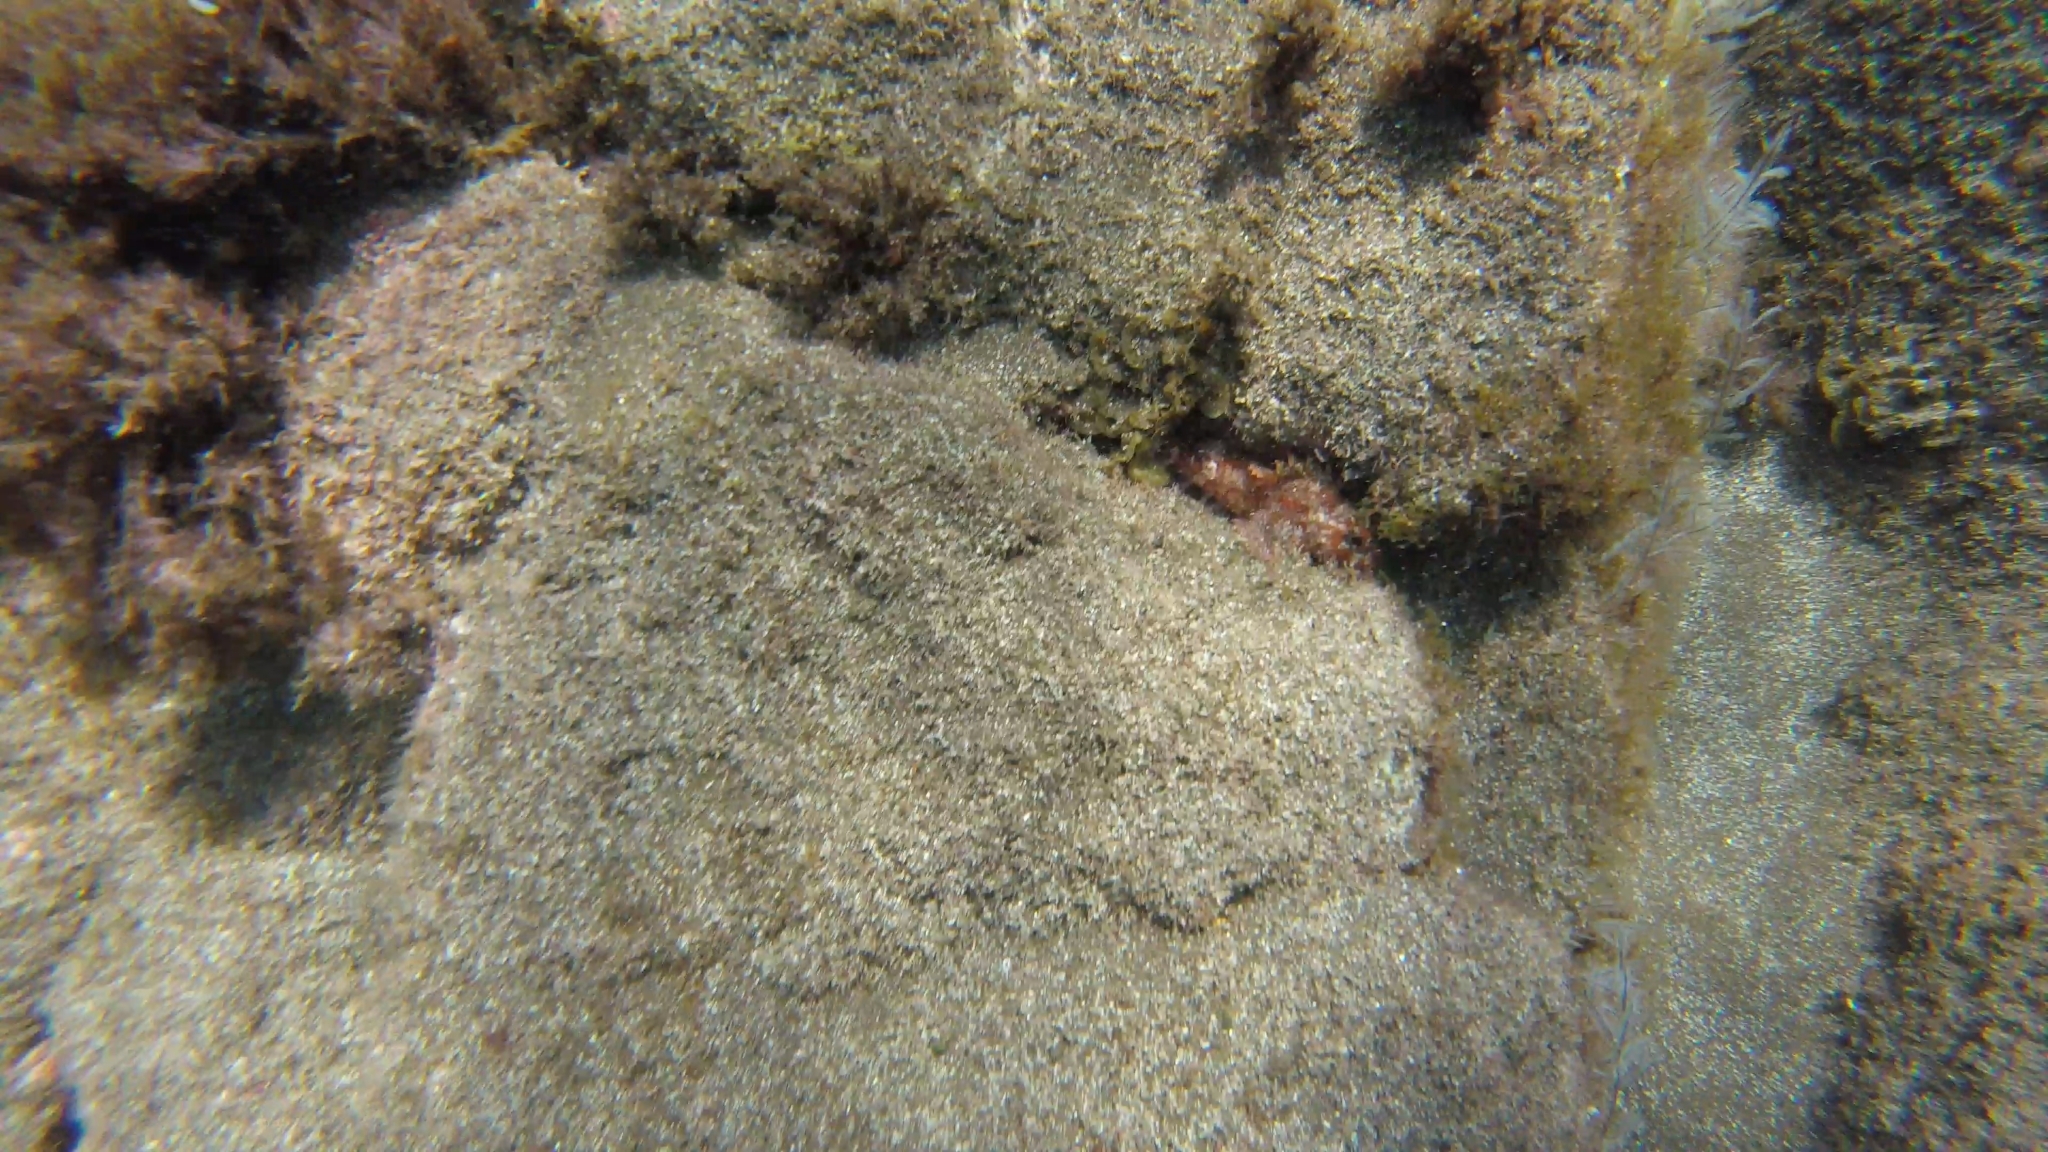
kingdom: Animalia
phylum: Chordata
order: Scorpaeniformes
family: Scorpaenidae
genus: Scorpaena
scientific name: Scorpaena maderensis
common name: Madeira rockfish
